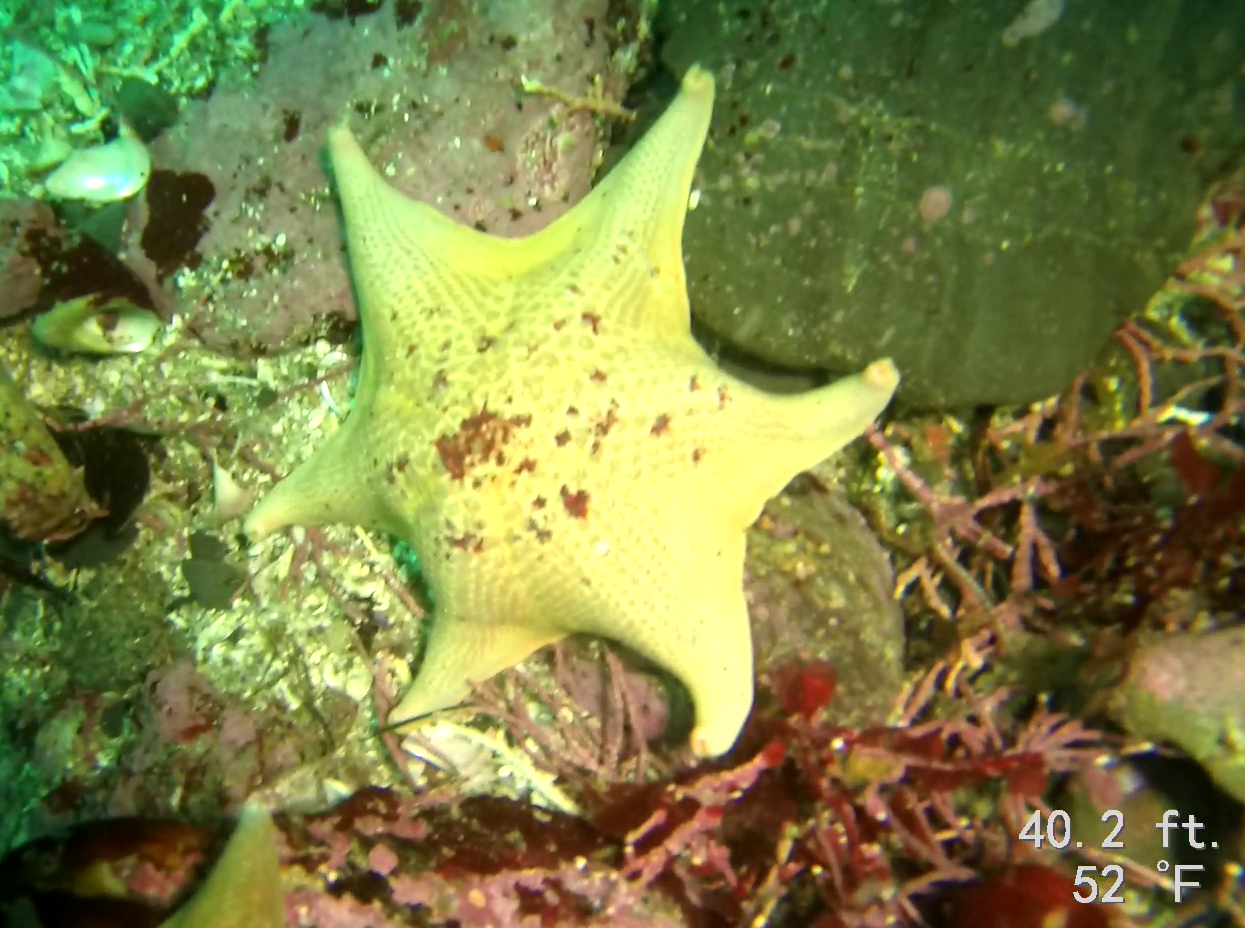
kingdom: Animalia
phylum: Echinodermata
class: Asteroidea
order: Valvatida
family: Asterinidae
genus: Patiria
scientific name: Patiria miniata
